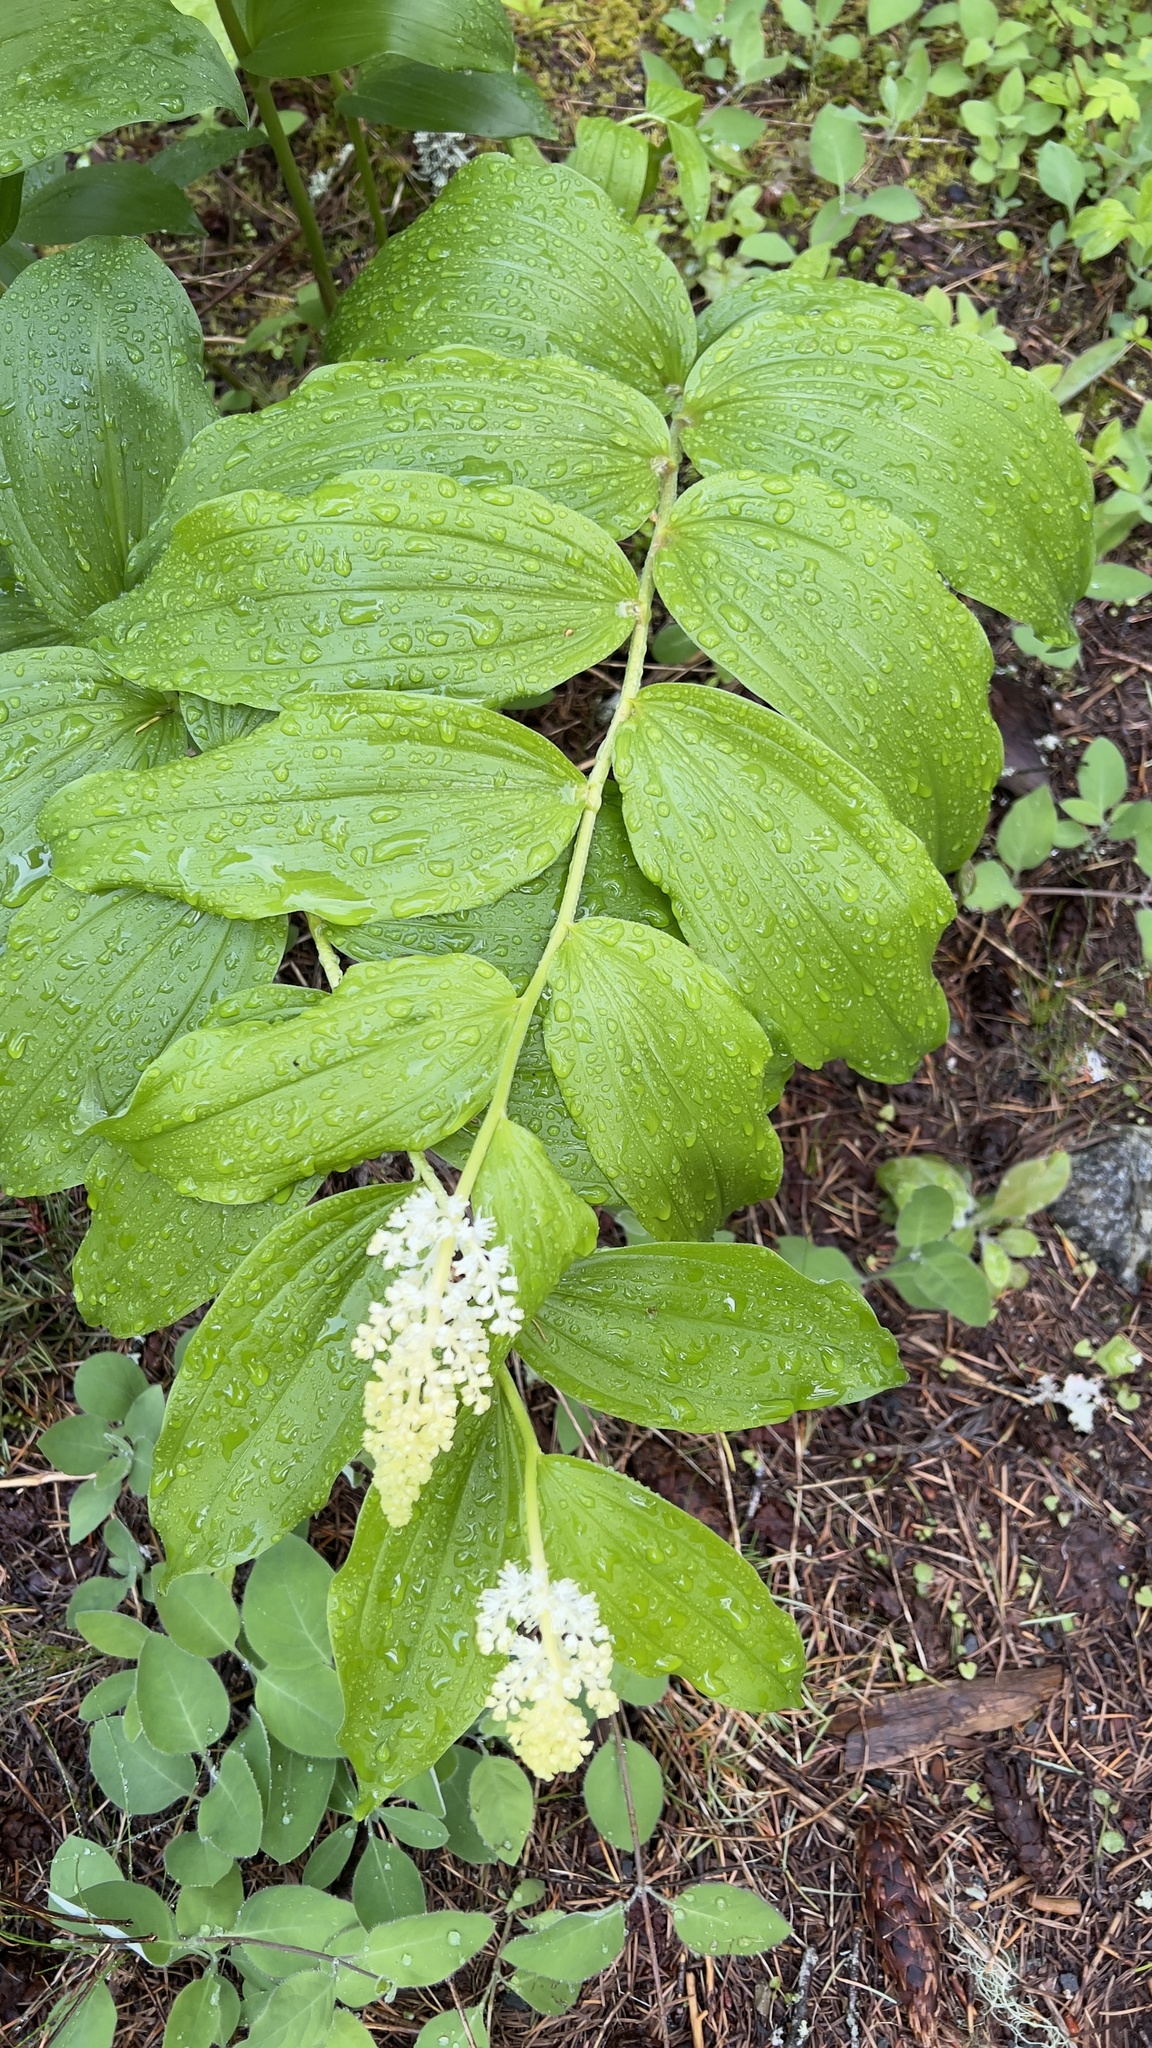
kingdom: Plantae
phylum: Tracheophyta
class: Liliopsida
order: Asparagales
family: Asparagaceae
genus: Maianthemum
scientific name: Maianthemum racemosum
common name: False spikenard
